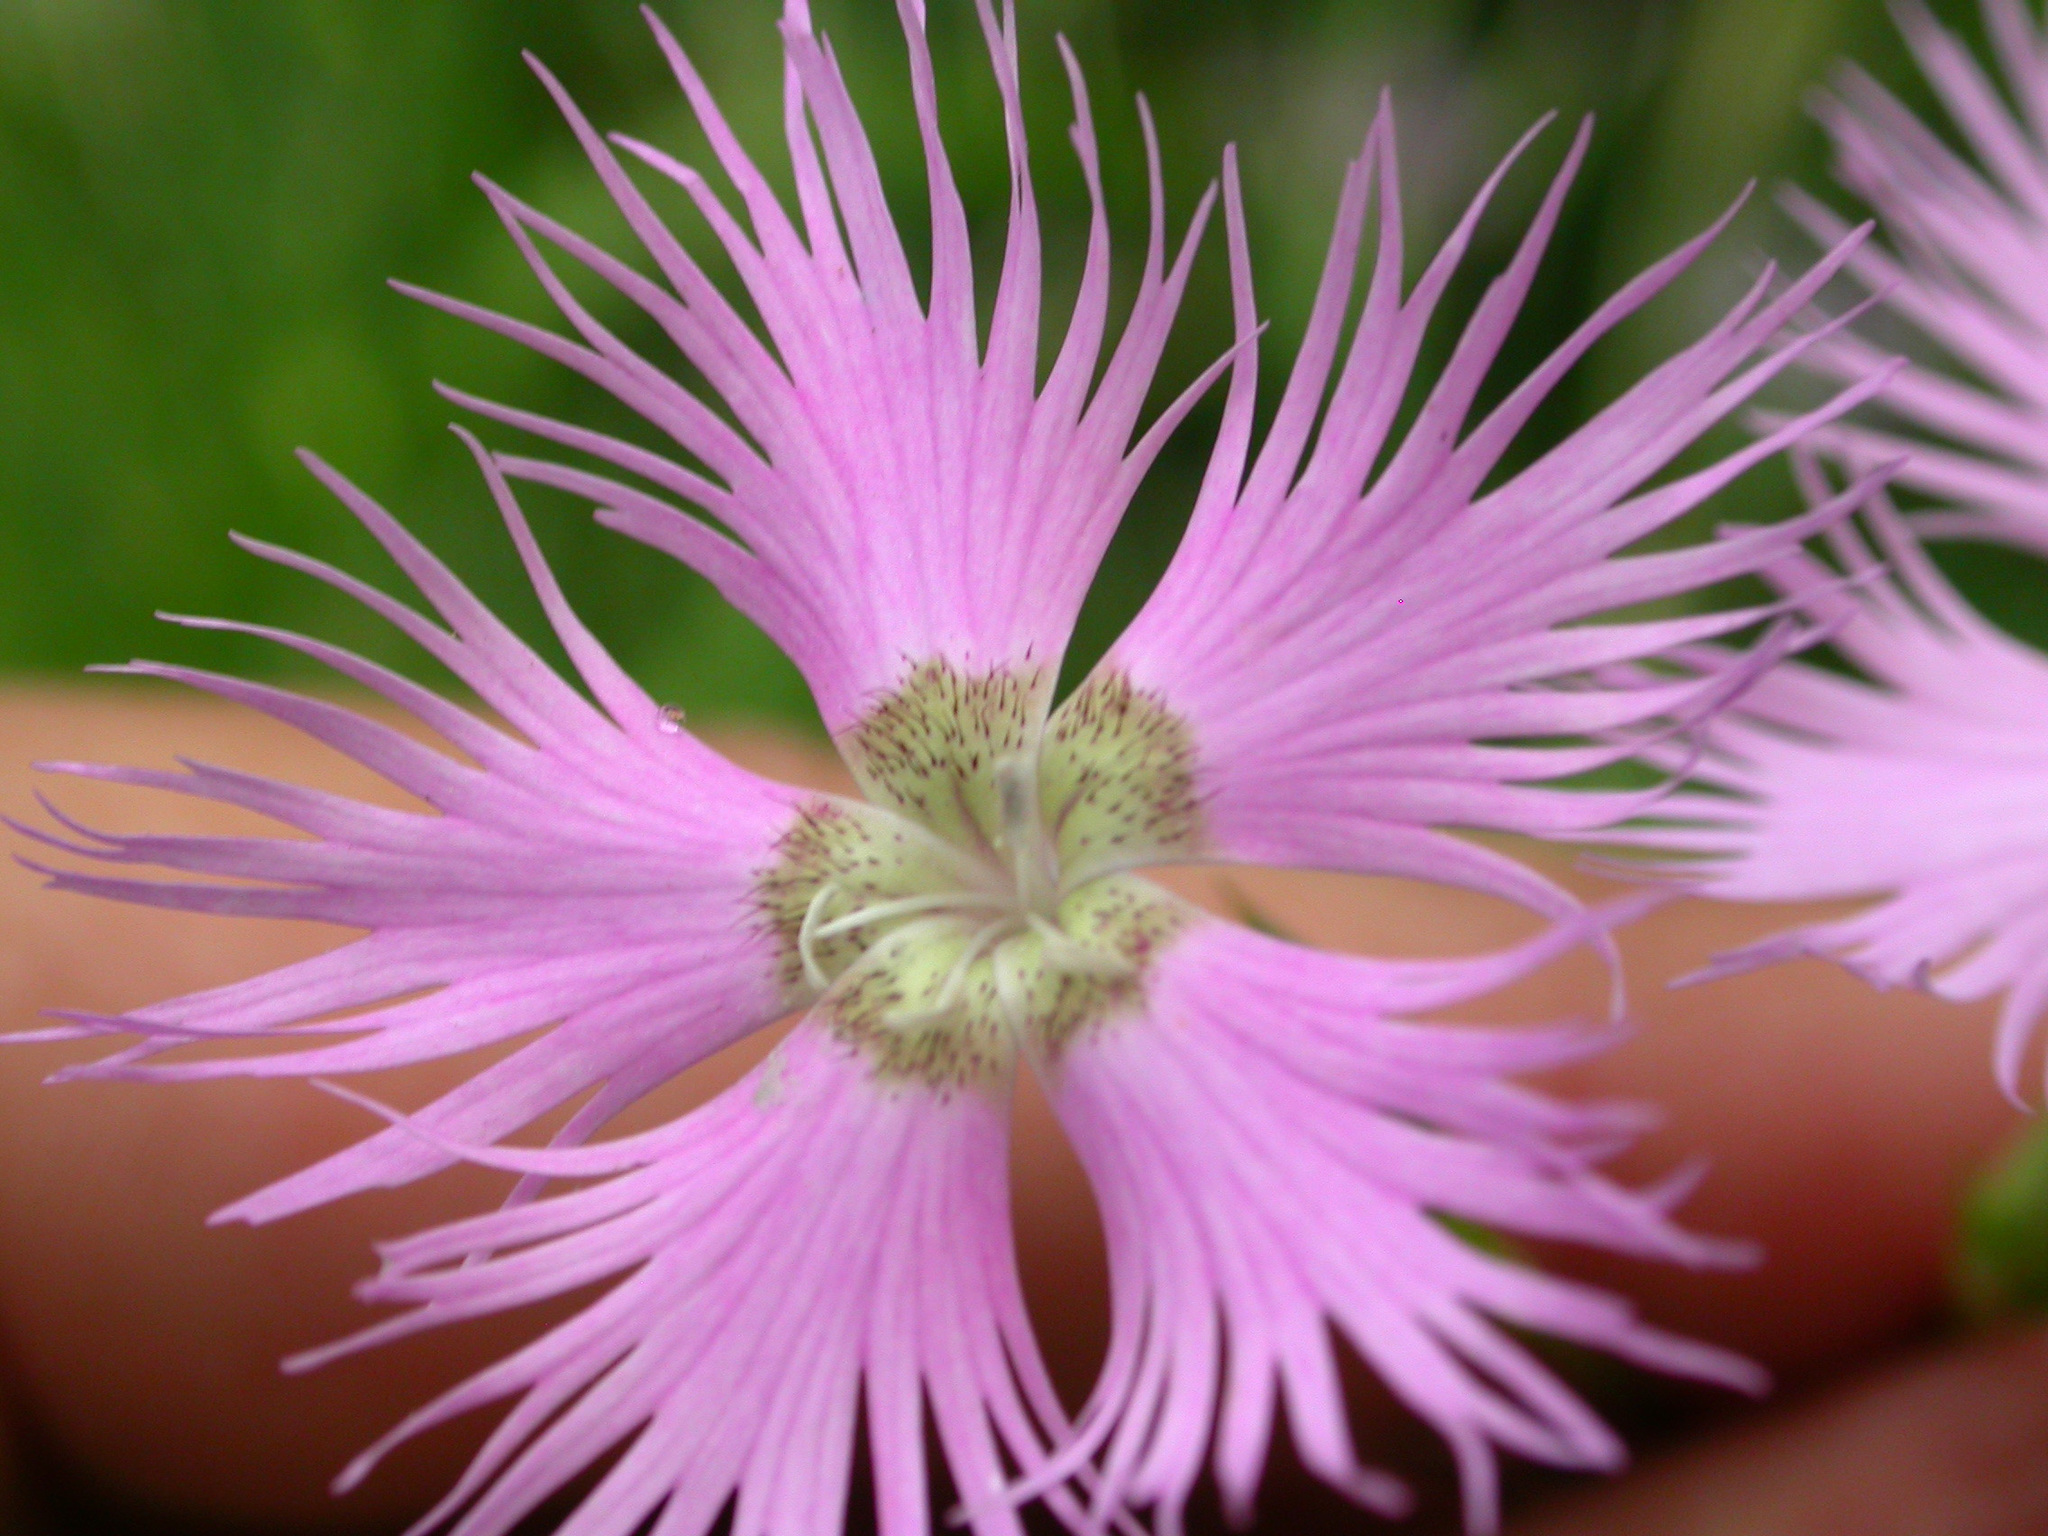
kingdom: Plantae
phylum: Tracheophyta
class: Magnoliopsida
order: Caryophyllales
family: Caryophyllaceae
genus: Dianthus
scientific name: Dianthus hyssopifolius
